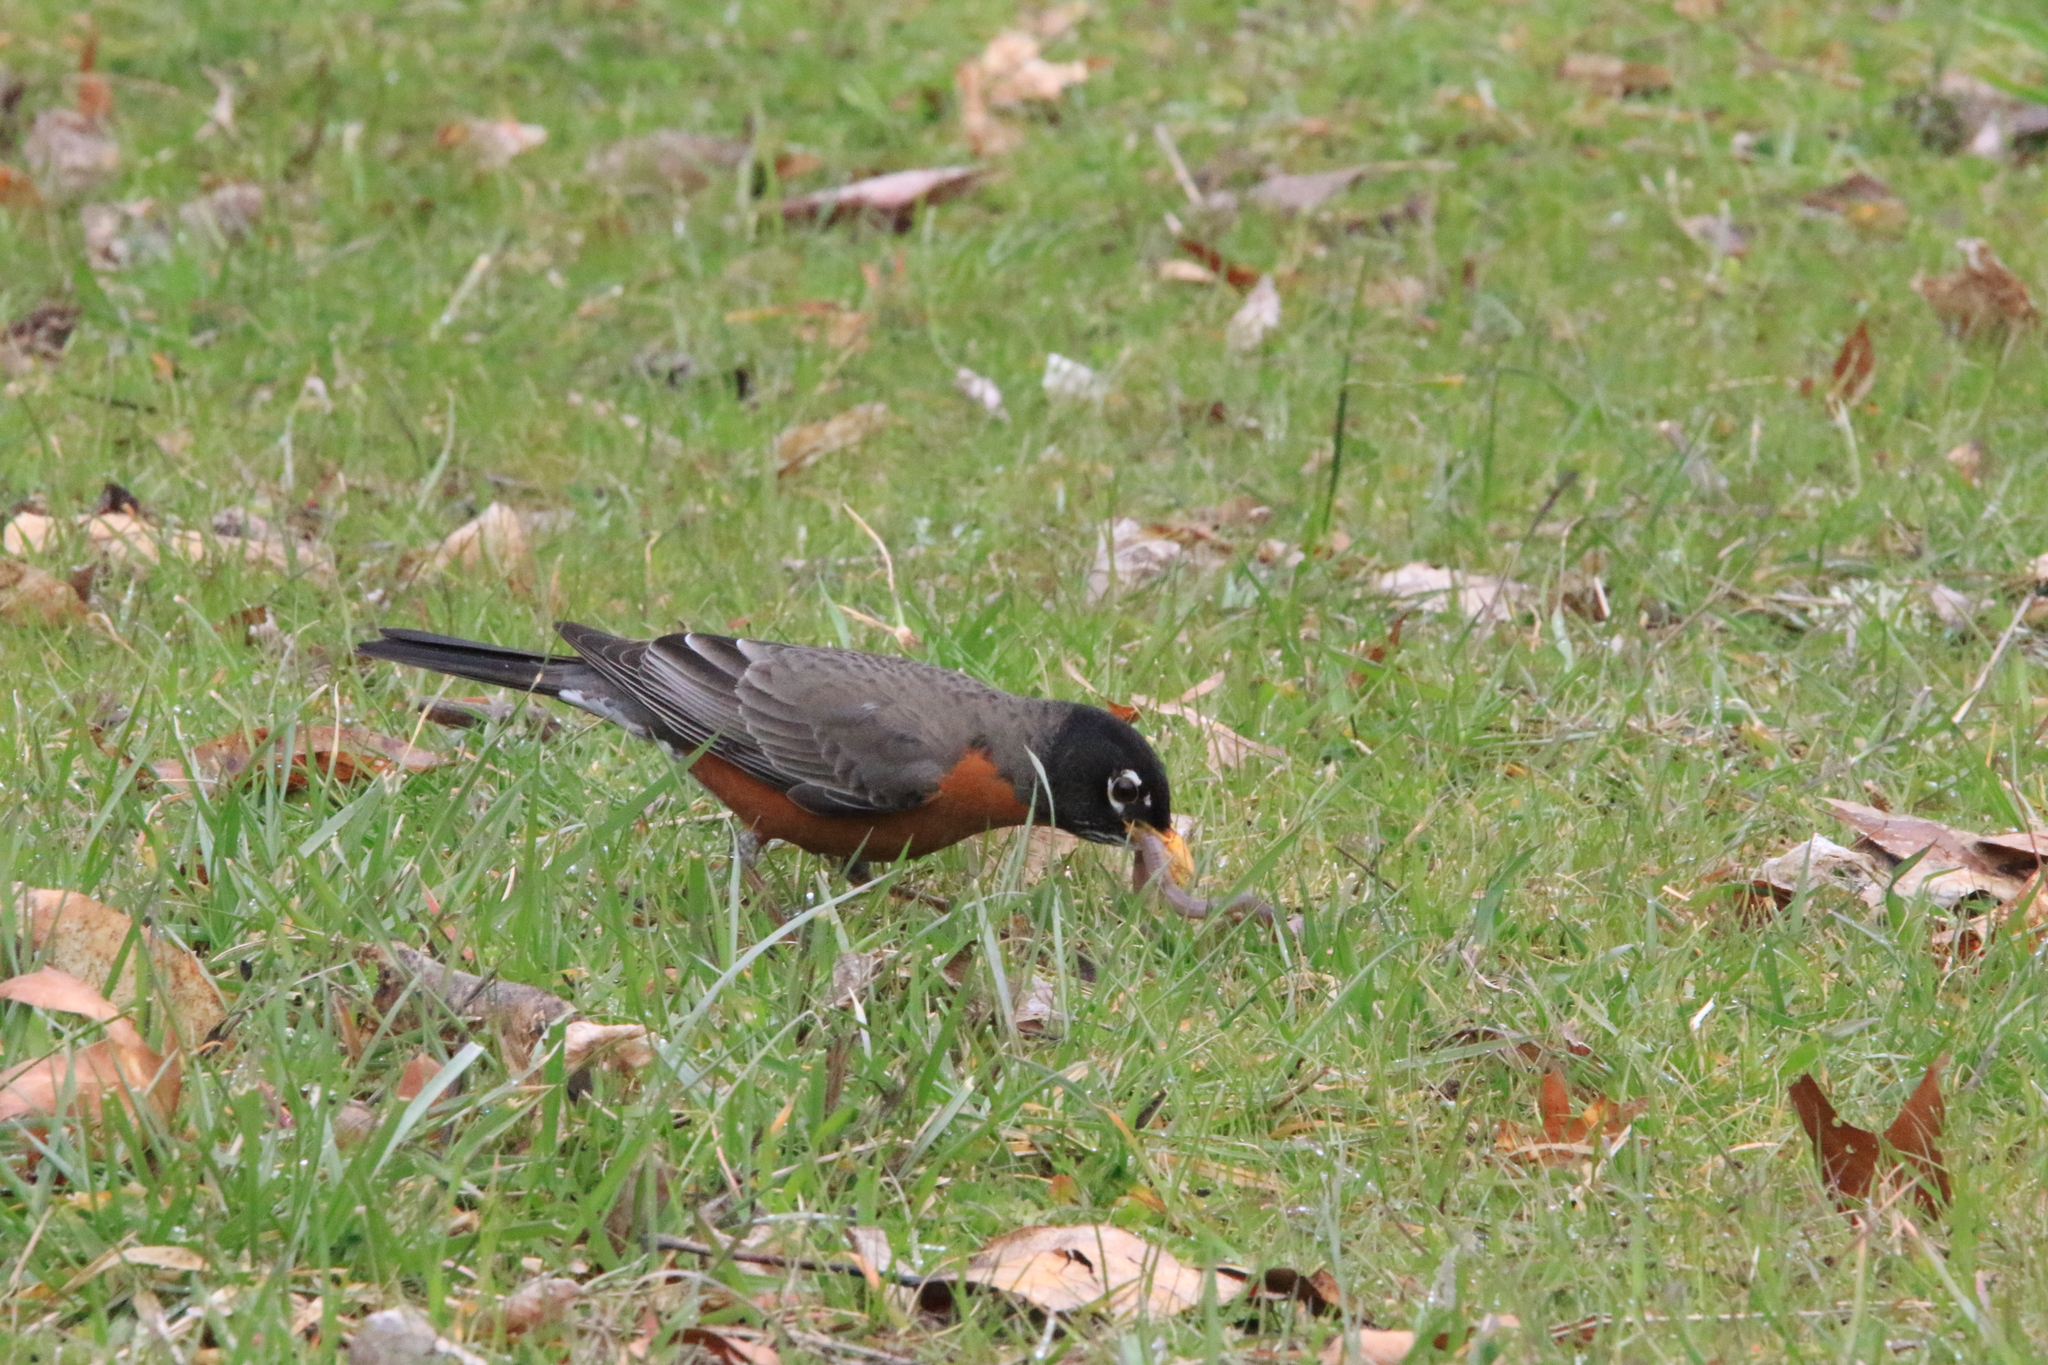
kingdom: Animalia
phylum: Chordata
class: Aves
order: Passeriformes
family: Turdidae
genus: Turdus
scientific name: Turdus migratorius
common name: American robin
